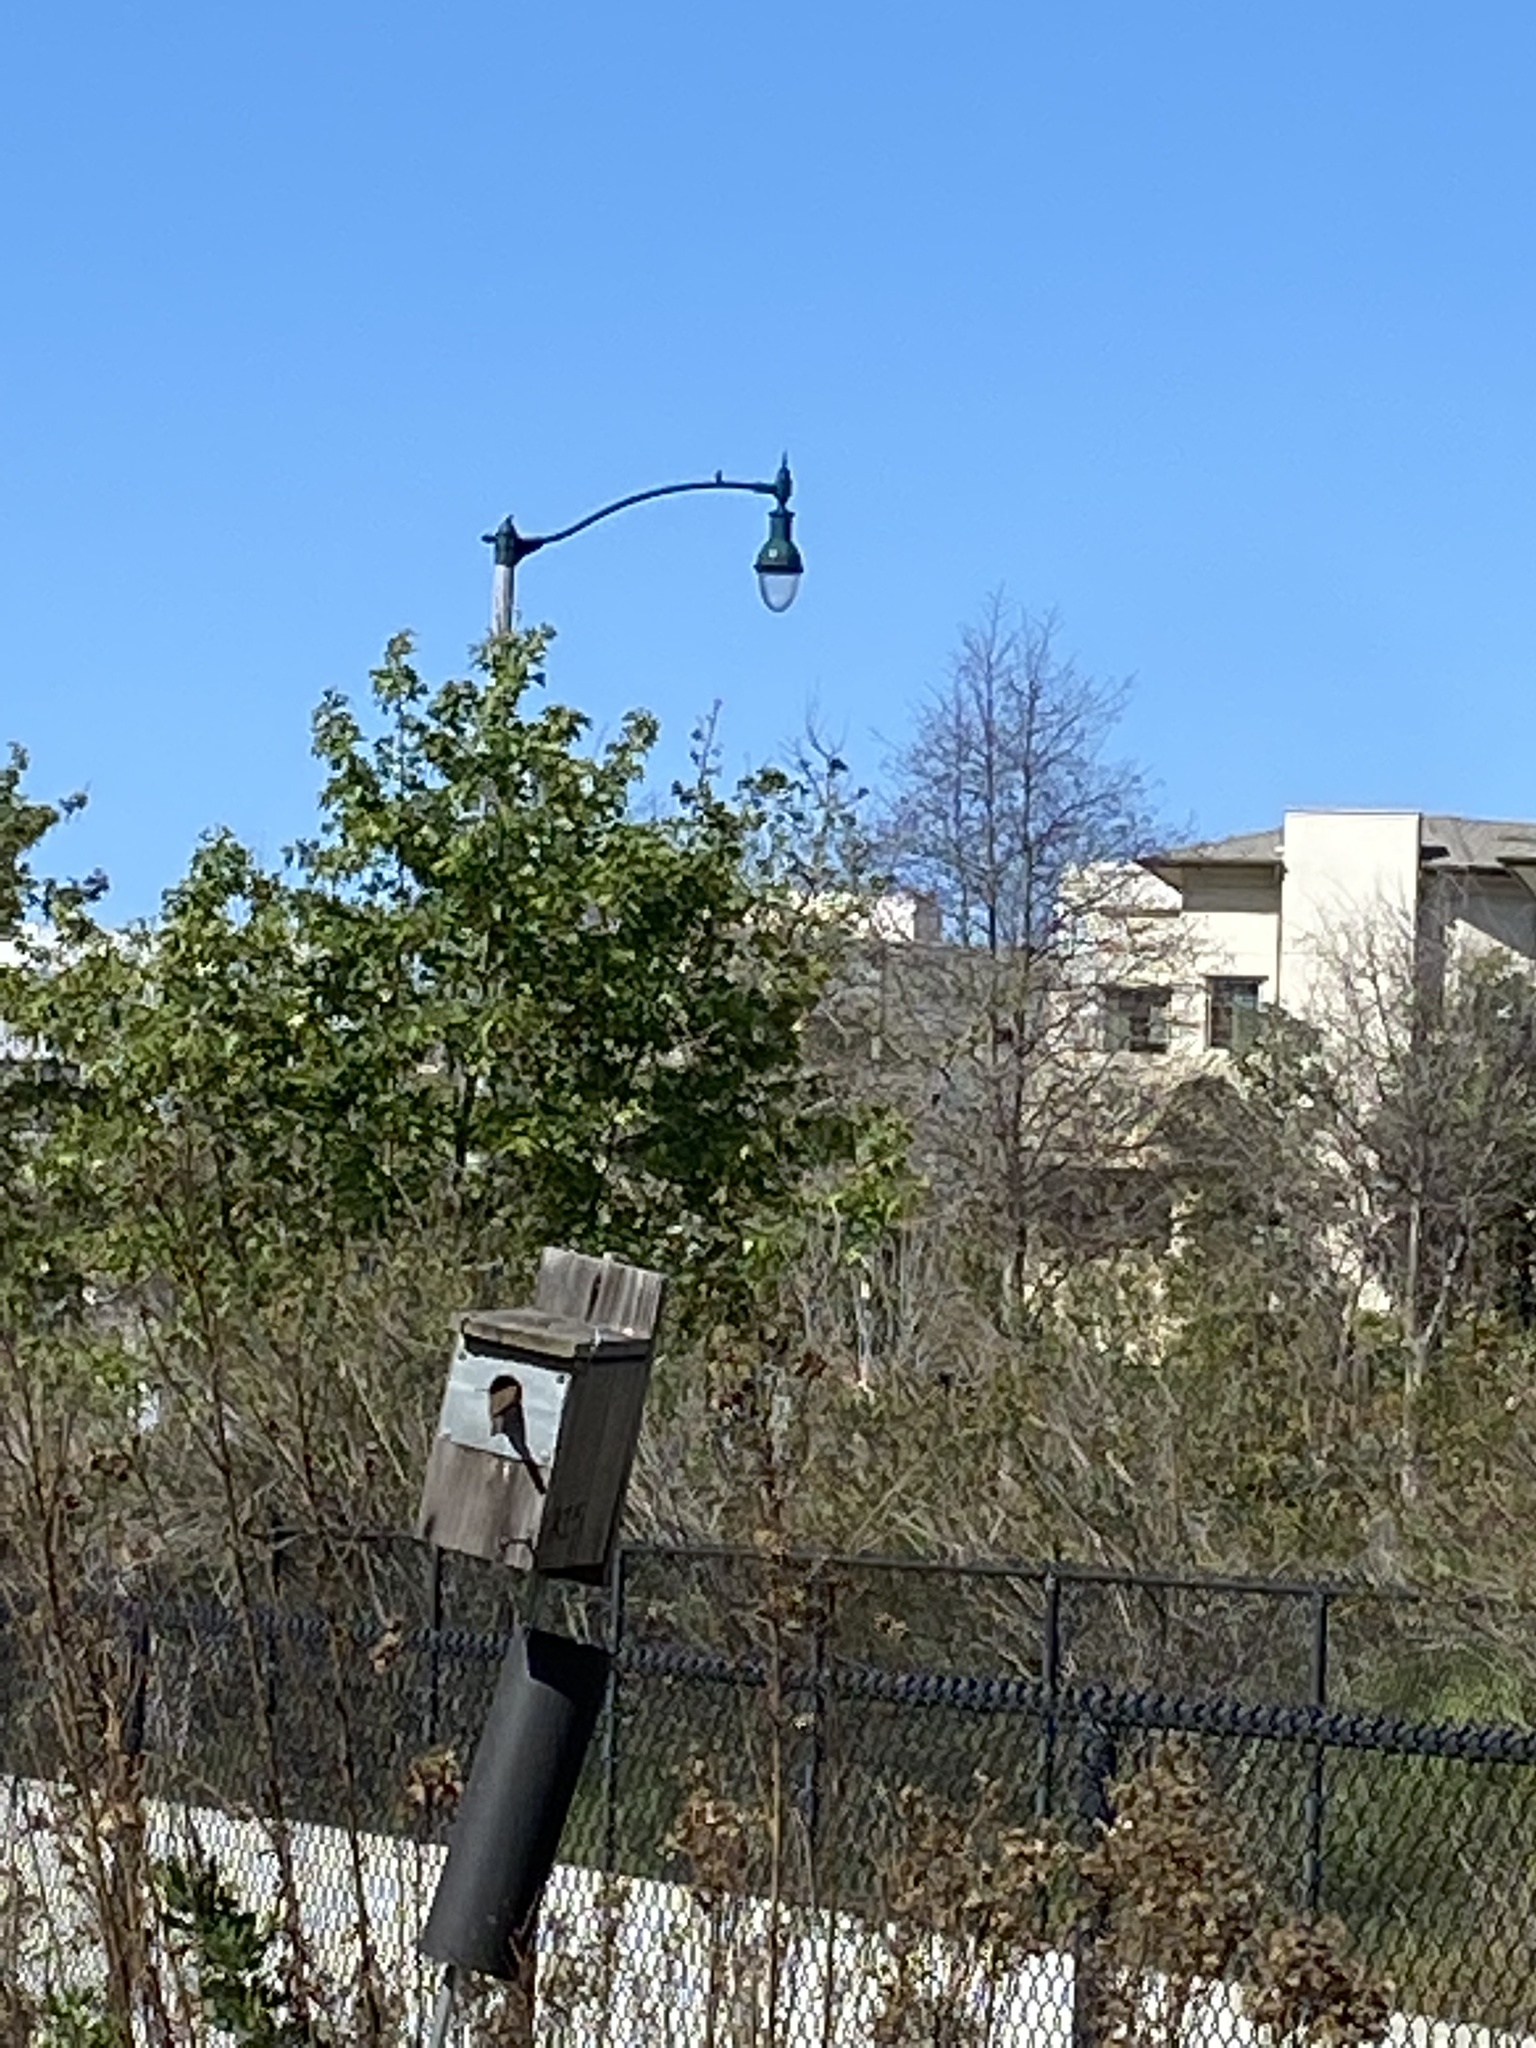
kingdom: Animalia
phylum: Chordata
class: Aves
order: Passeriformes
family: Troglodytidae
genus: Troglodytes
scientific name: Troglodytes aedon
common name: House wren
